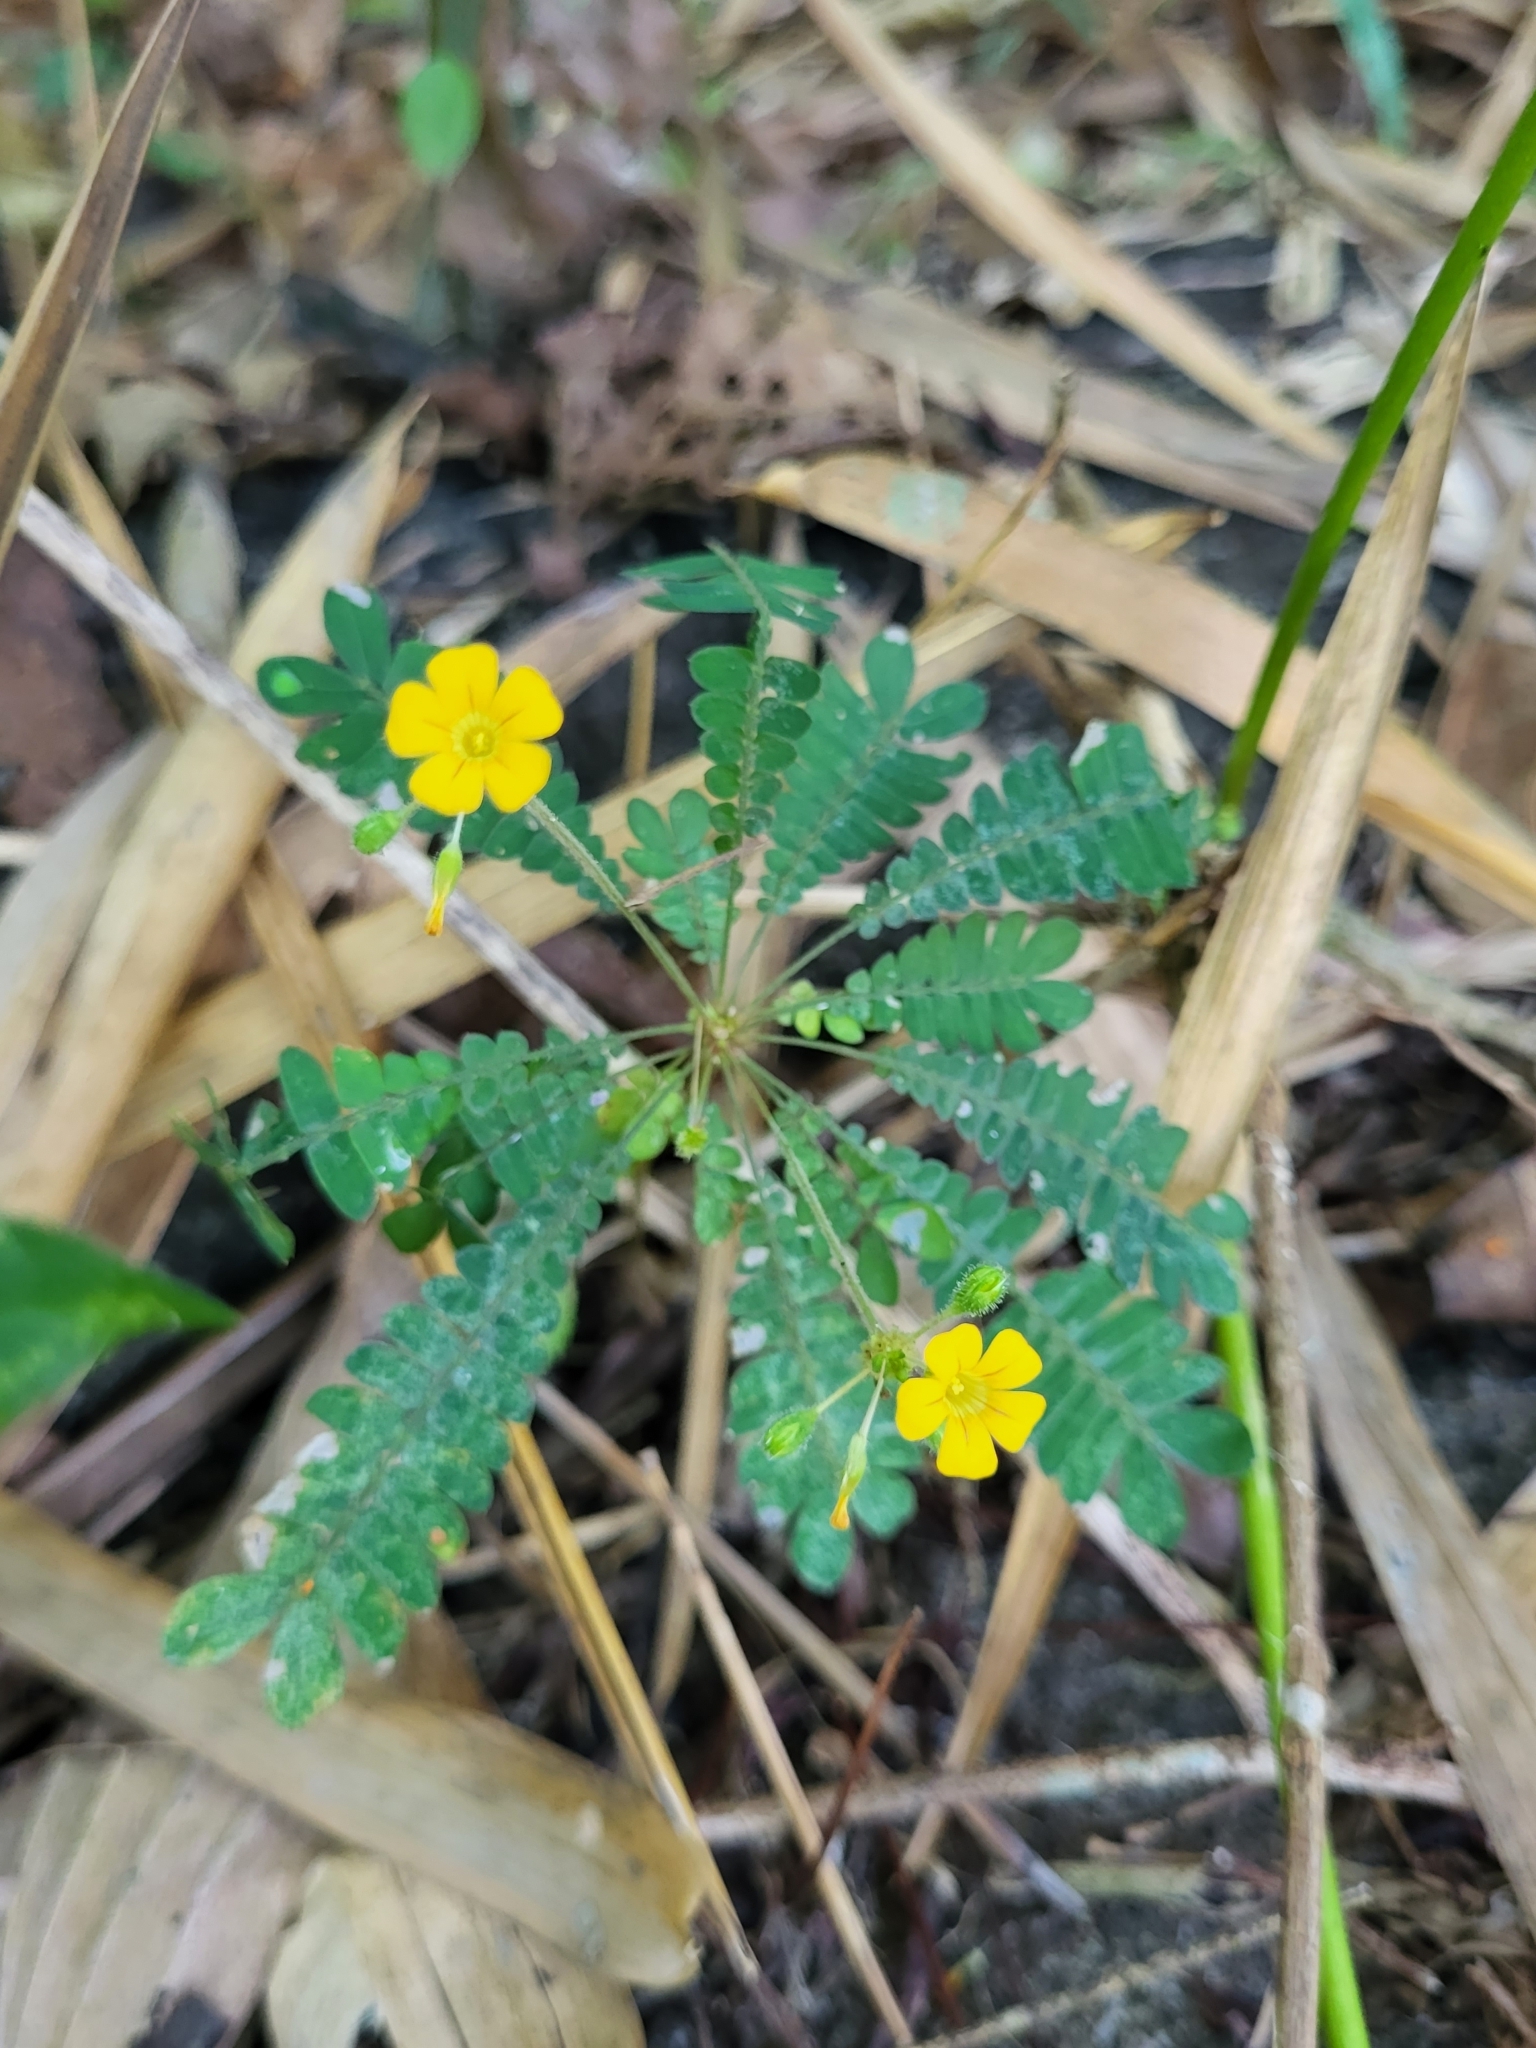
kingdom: Plantae
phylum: Tracheophyta
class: Magnoliopsida
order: Oxalidales
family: Oxalidaceae
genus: Biophytum
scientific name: Biophytum sensitivum
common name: Lifeplant
